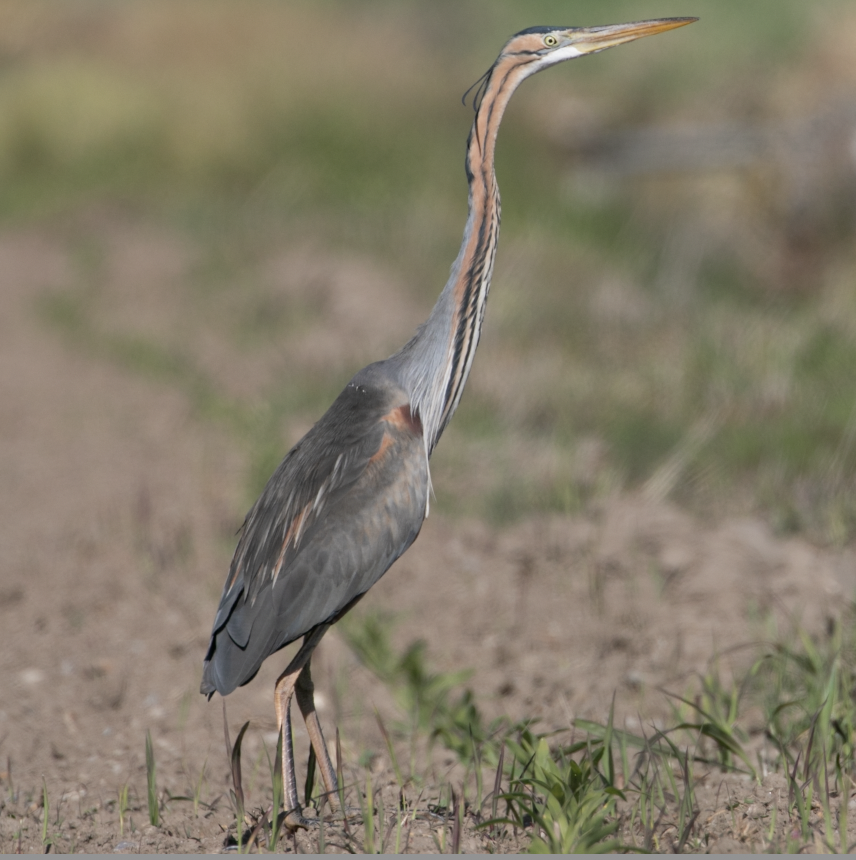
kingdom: Animalia
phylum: Chordata
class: Aves
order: Pelecaniformes
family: Ardeidae
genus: Ardea
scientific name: Ardea purpurea
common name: Purple heron
